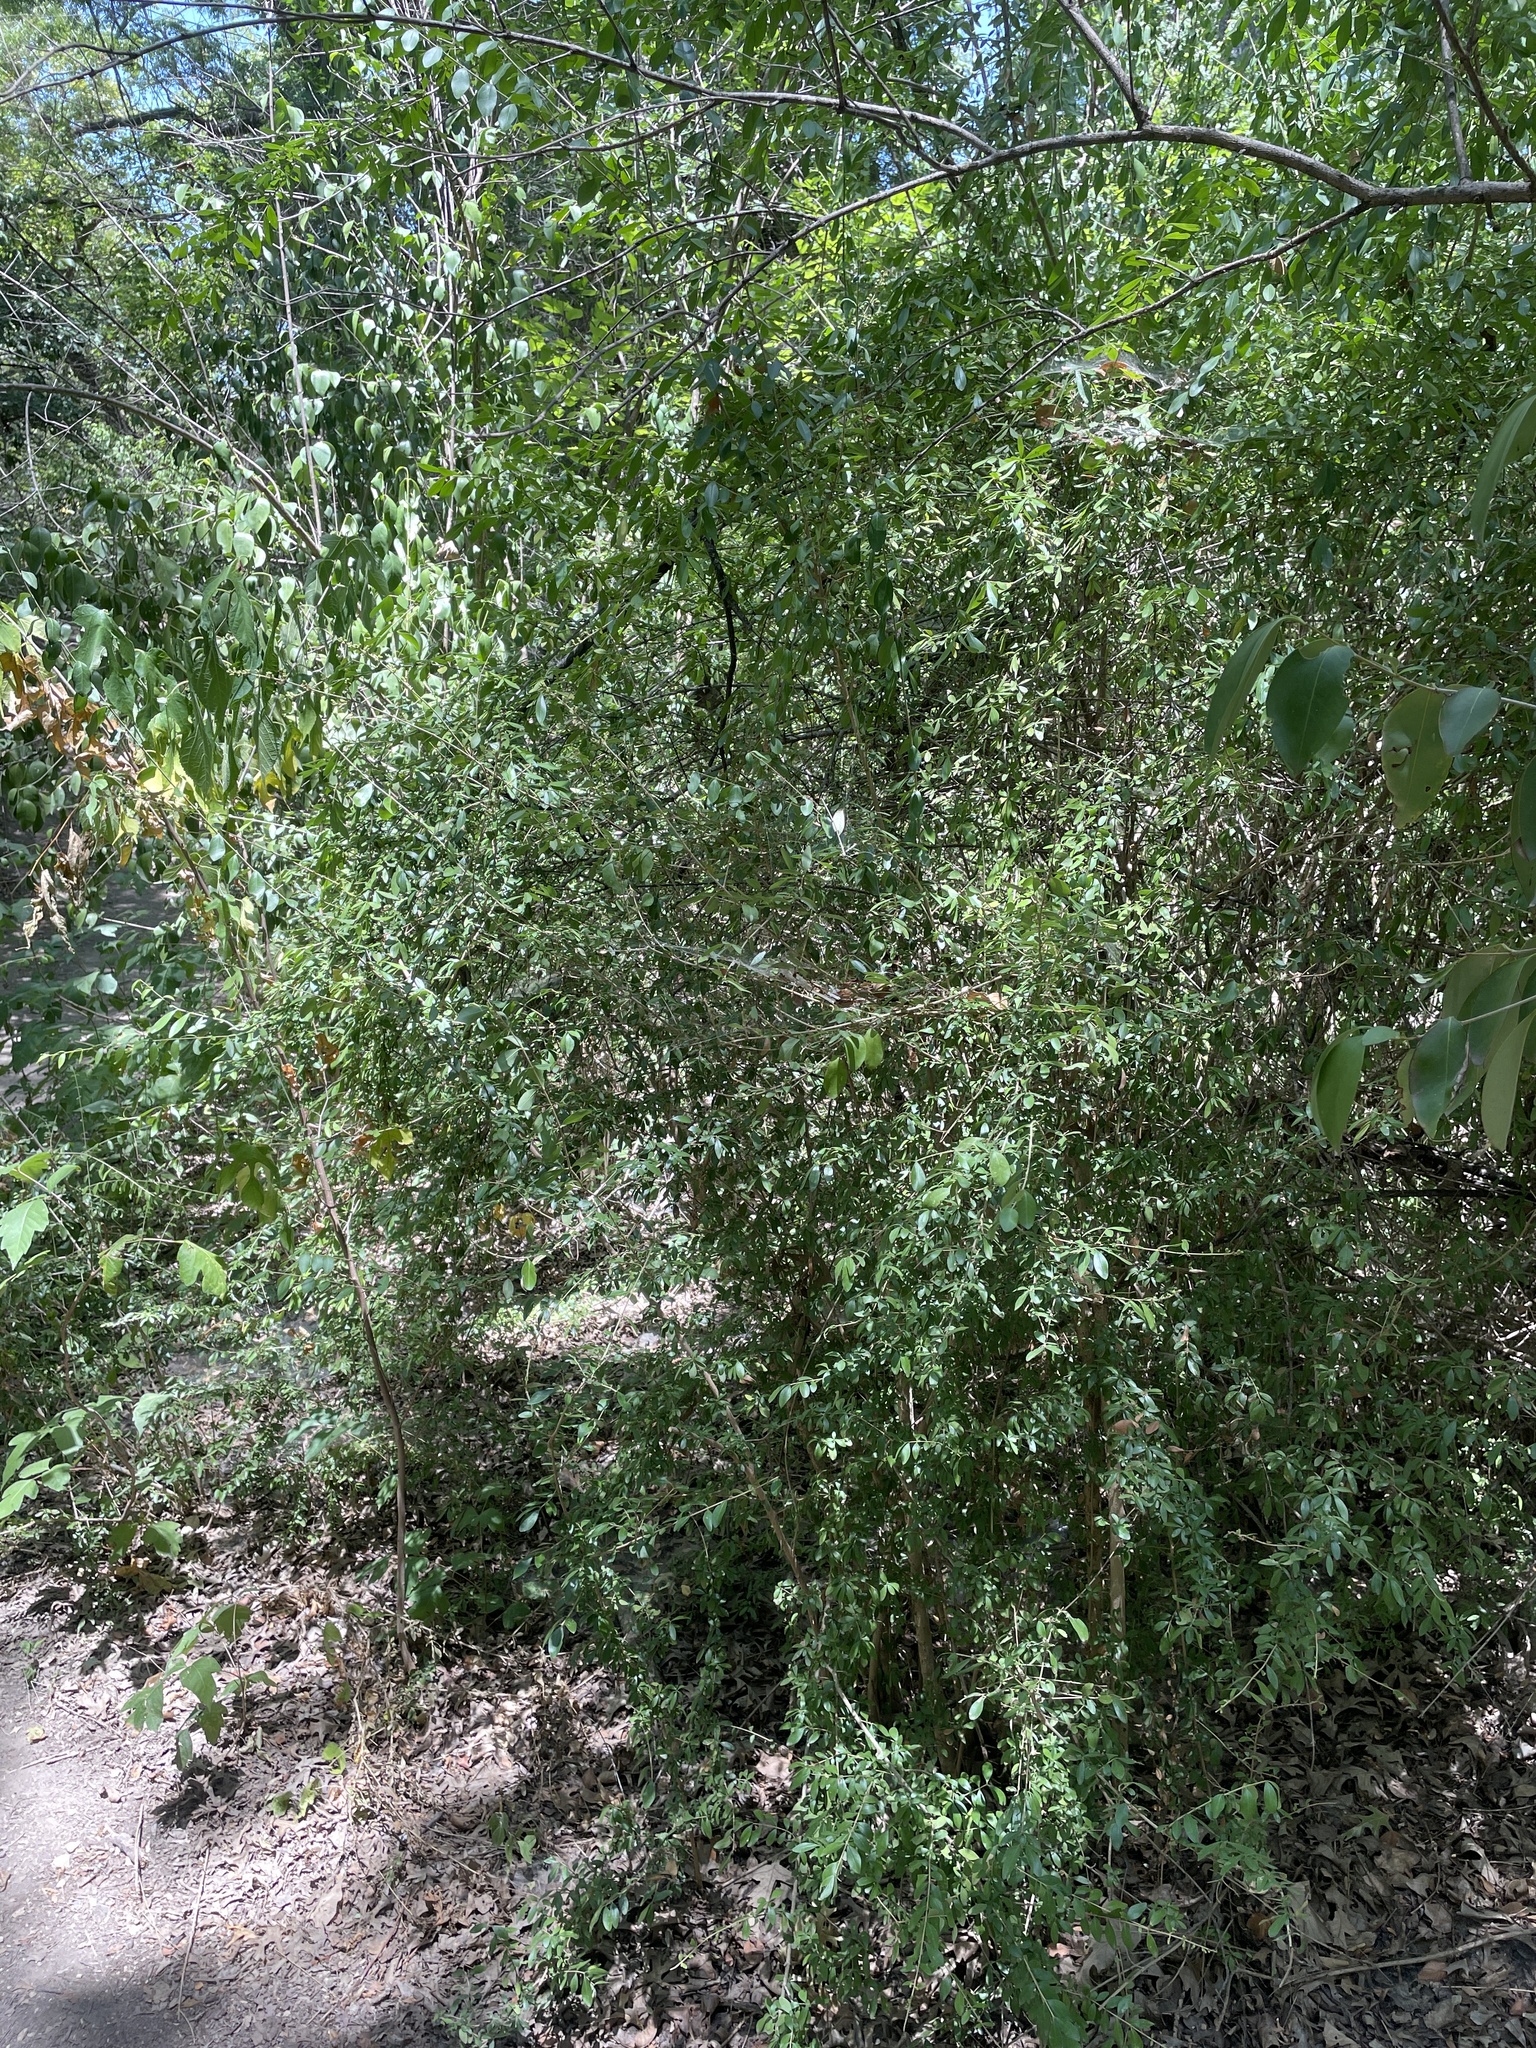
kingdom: Plantae
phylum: Tracheophyta
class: Magnoliopsida
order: Lamiales
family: Oleaceae
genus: Ligustrum
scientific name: Ligustrum quihoui
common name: Waxyleaf privet
